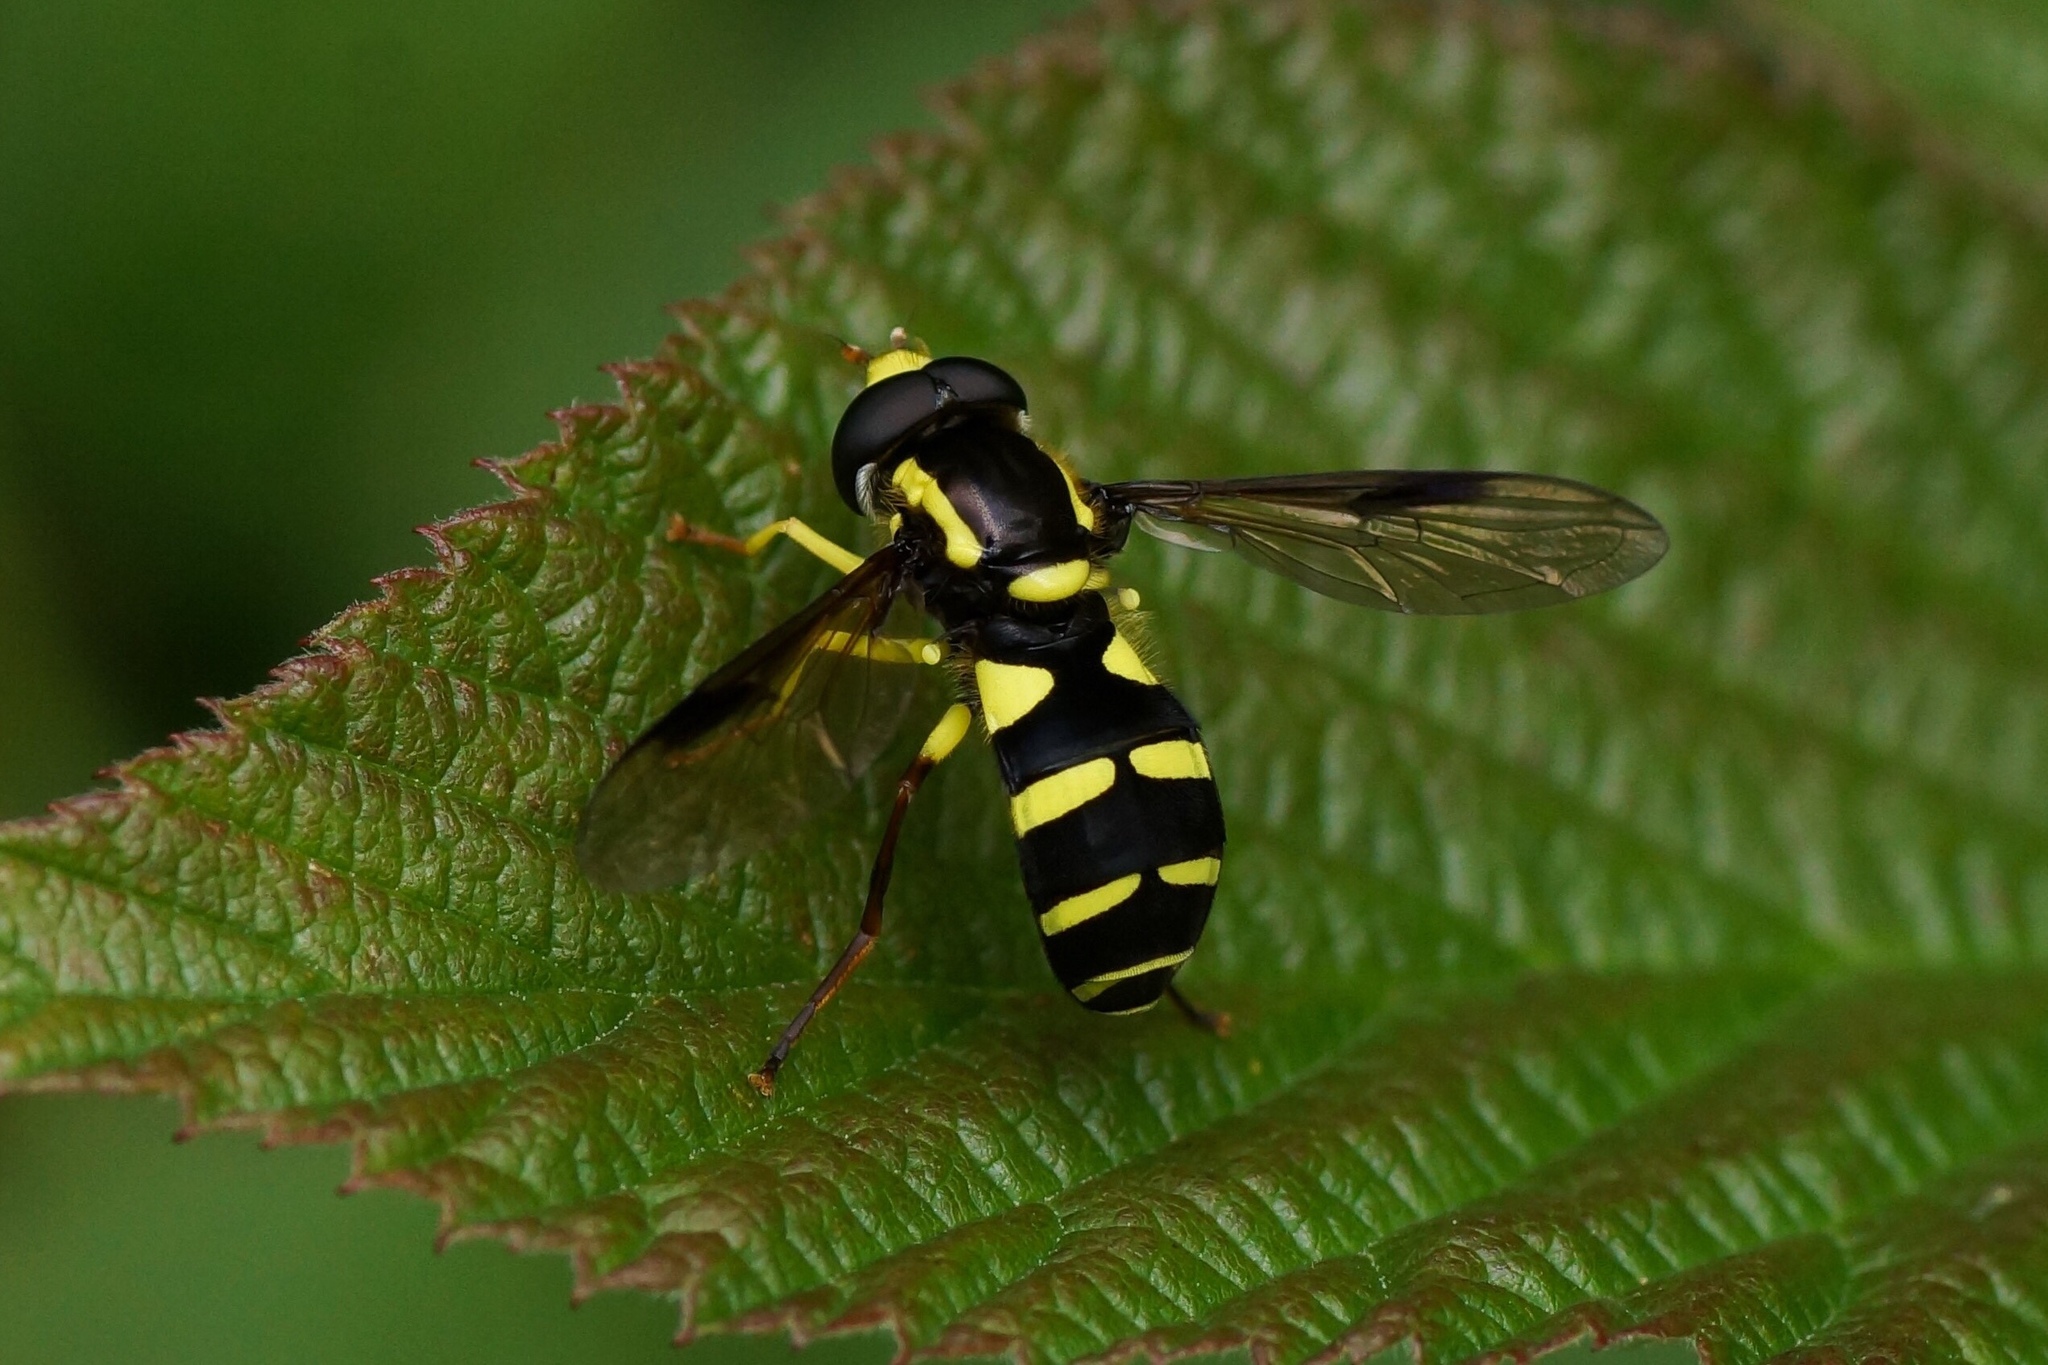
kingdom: Animalia
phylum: Arthropoda
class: Insecta
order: Diptera
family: Syrphidae
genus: Philhelius
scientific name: Philhelius pedissequum
